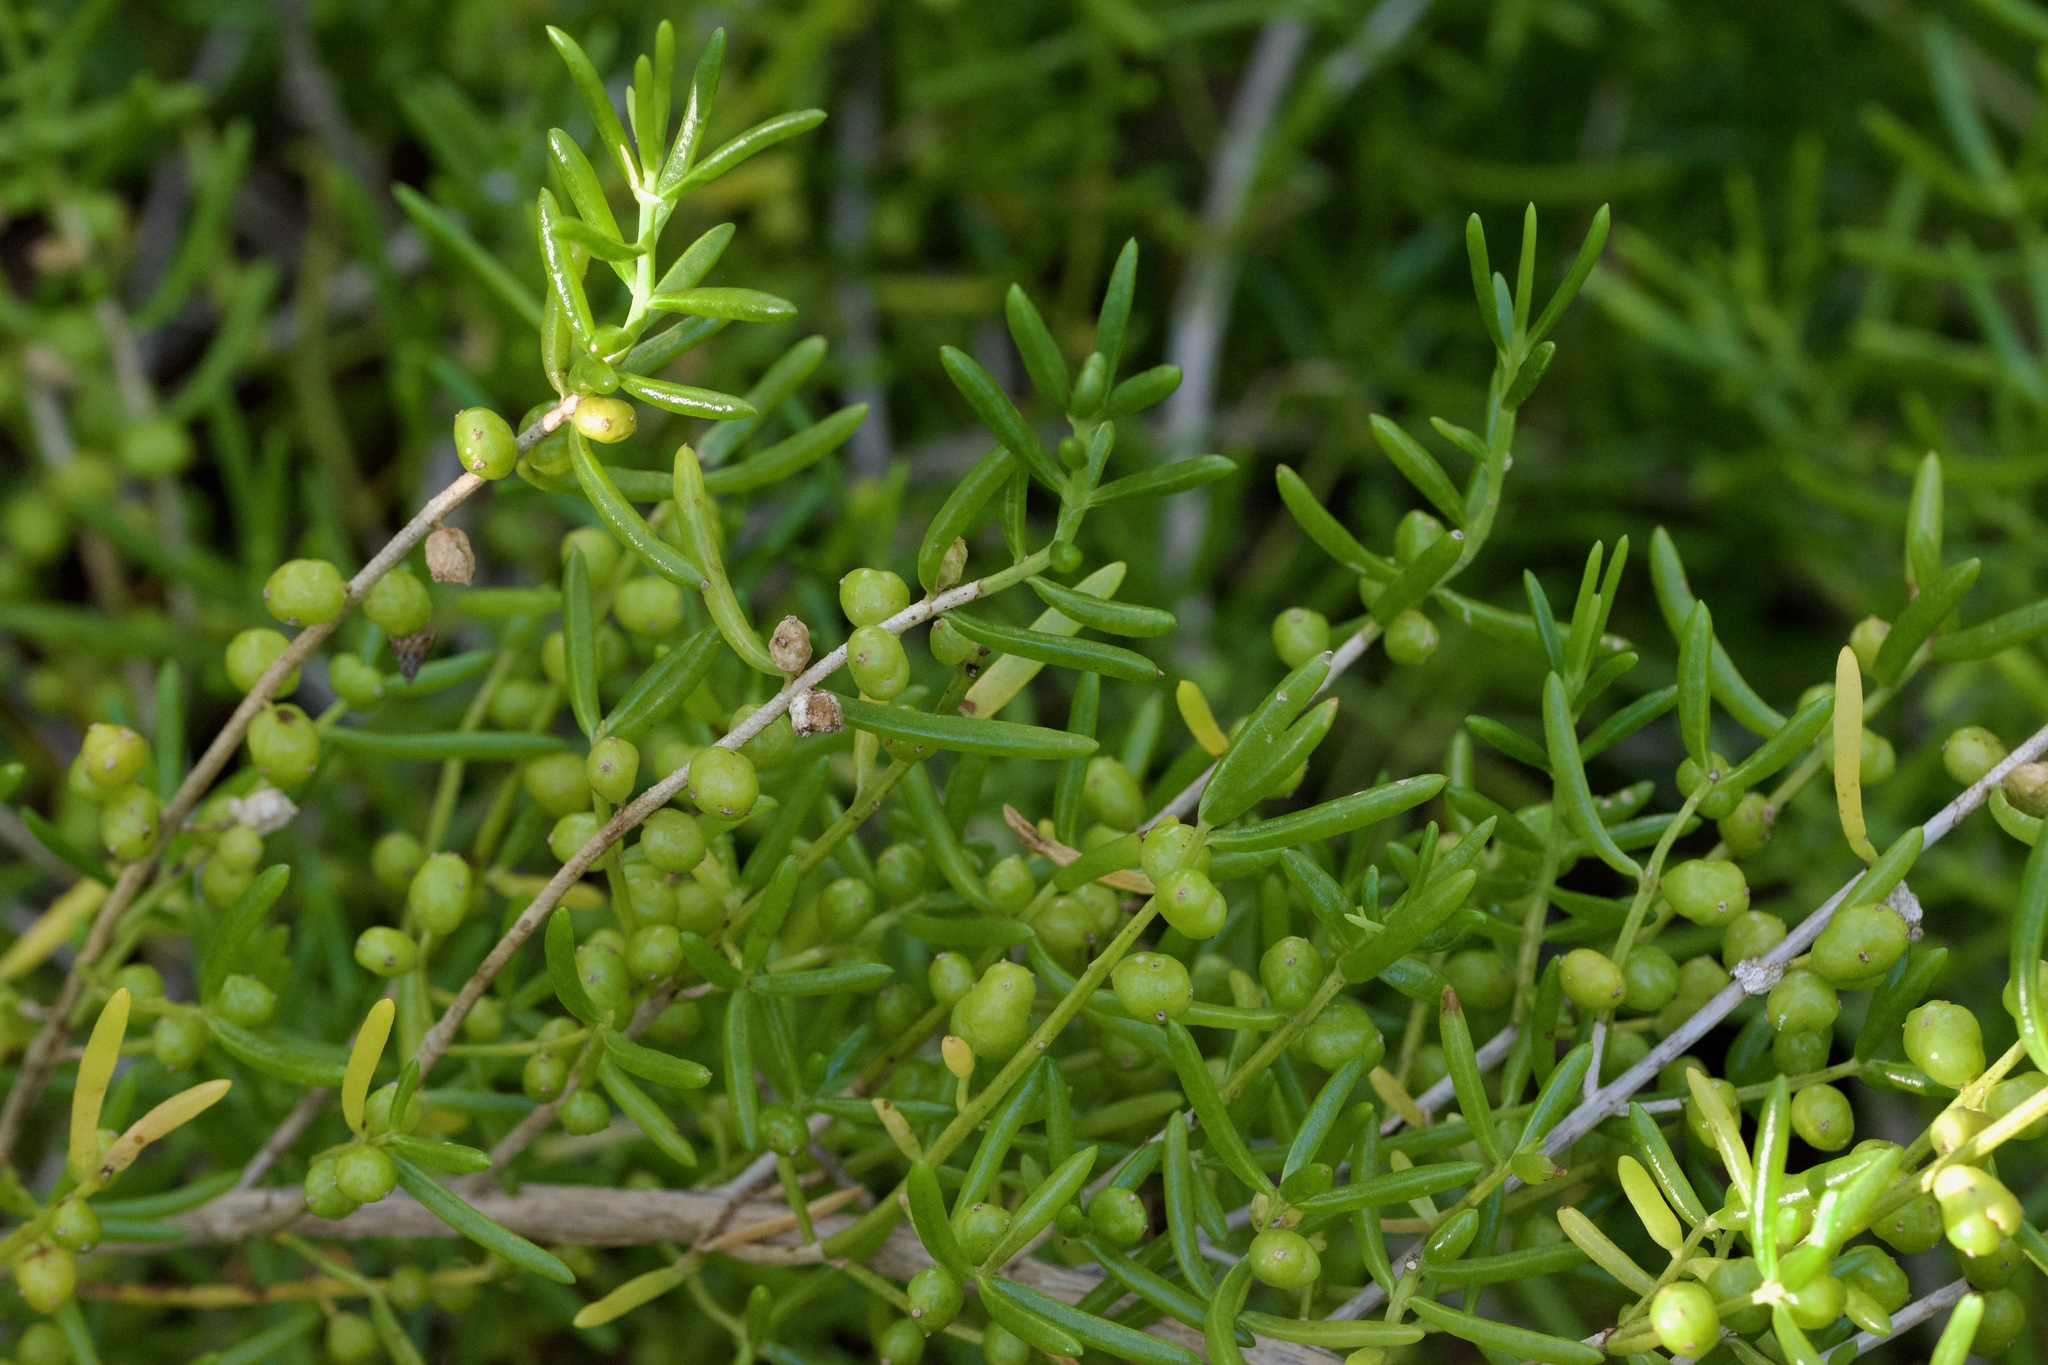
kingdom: Plantae
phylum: Tracheophyta
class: Magnoliopsida
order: Brassicales
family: Bataceae
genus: Batis
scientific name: Batis maritima
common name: Turtleweed
